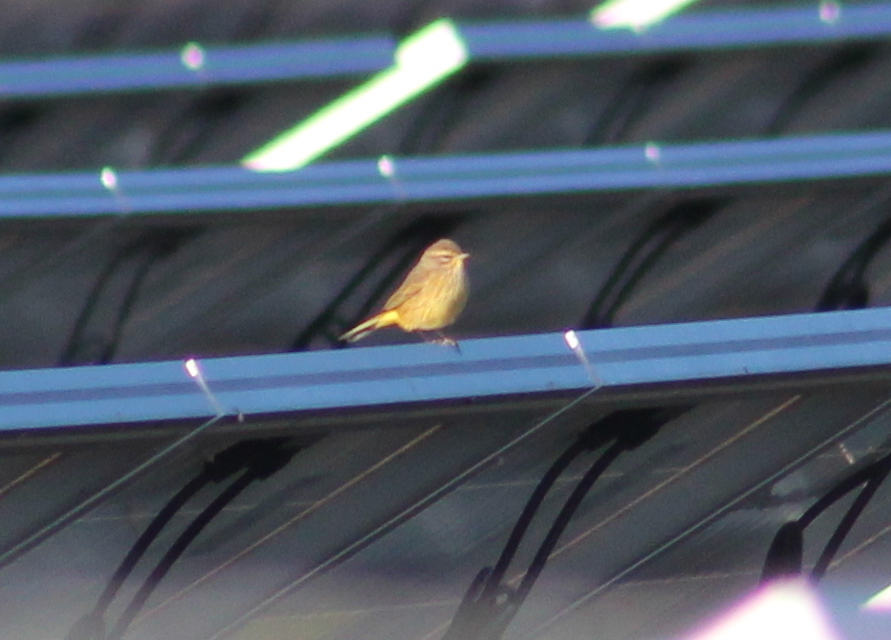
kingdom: Animalia
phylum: Chordata
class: Aves
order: Passeriformes
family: Parulidae
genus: Setophaga
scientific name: Setophaga palmarum
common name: Palm warbler
